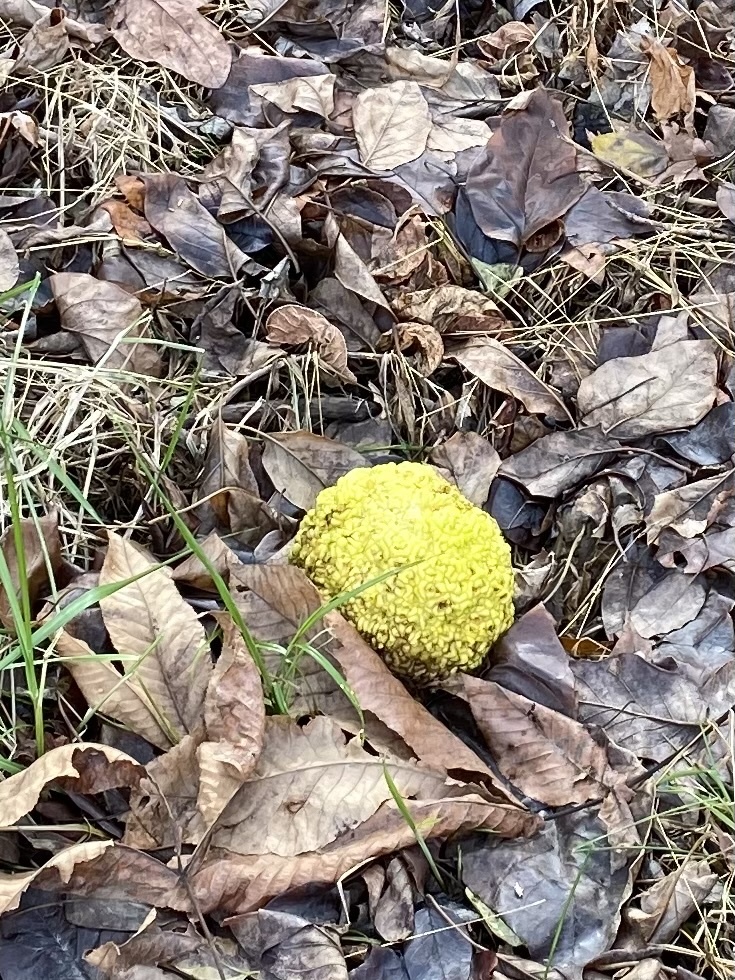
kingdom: Plantae
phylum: Tracheophyta
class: Magnoliopsida
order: Rosales
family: Moraceae
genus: Maclura
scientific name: Maclura pomifera
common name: Osage-orange
